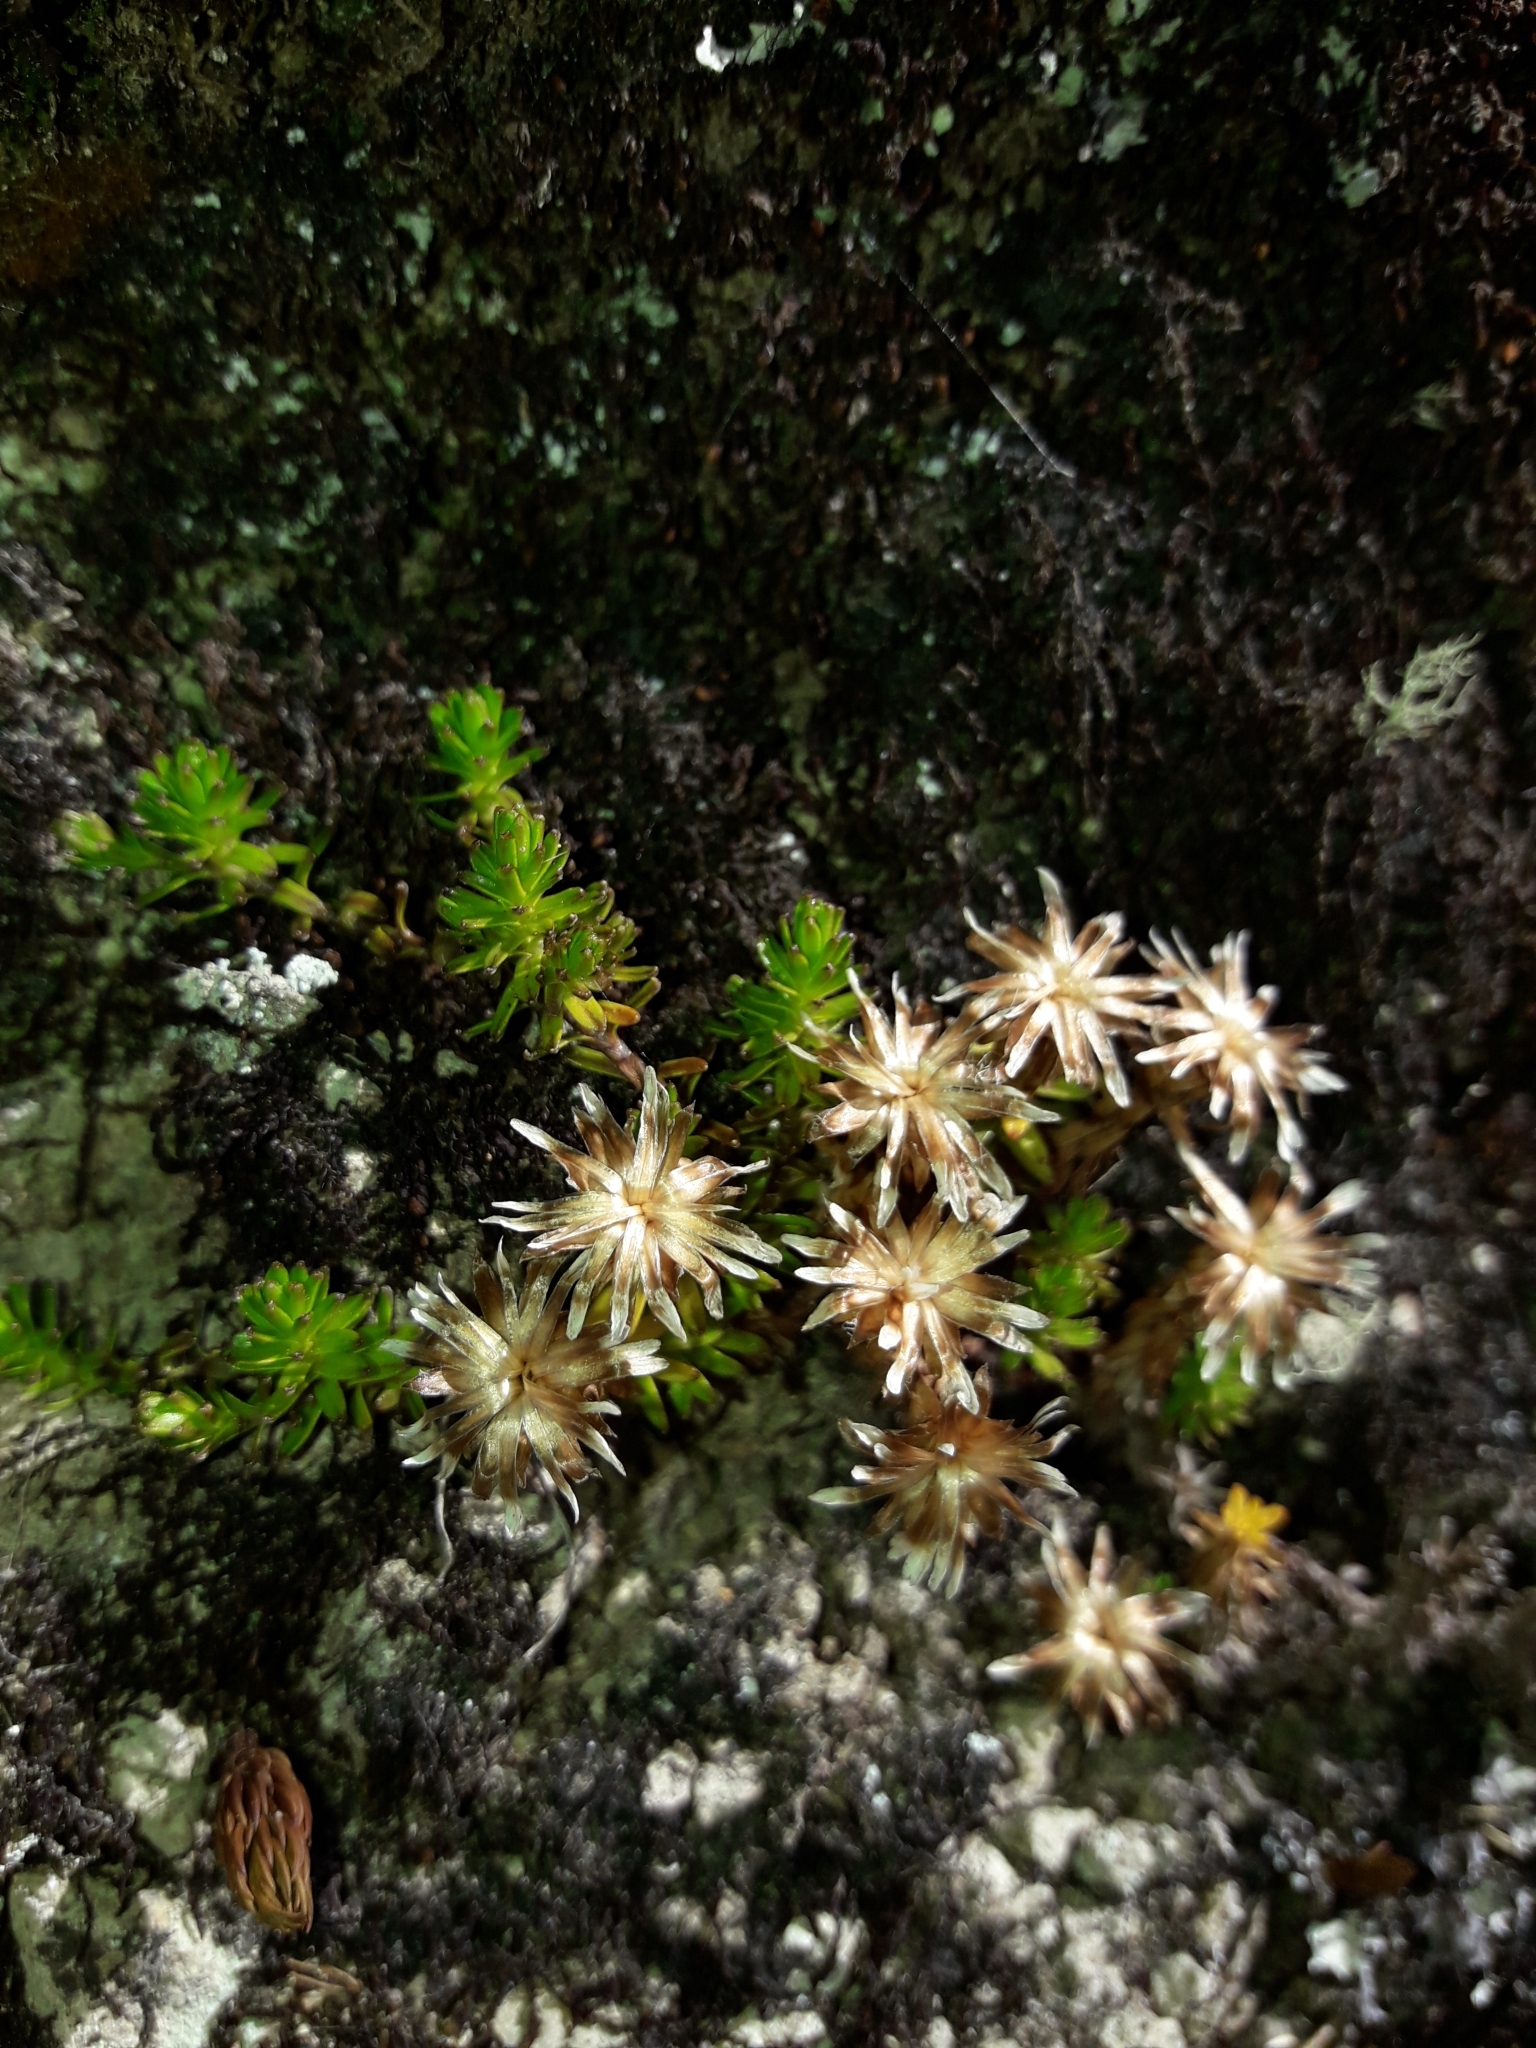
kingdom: Plantae
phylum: Tracheophyta
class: Magnoliopsida
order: Asterales
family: Asteraceae
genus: Raoulia
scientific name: Raoulia glabra
